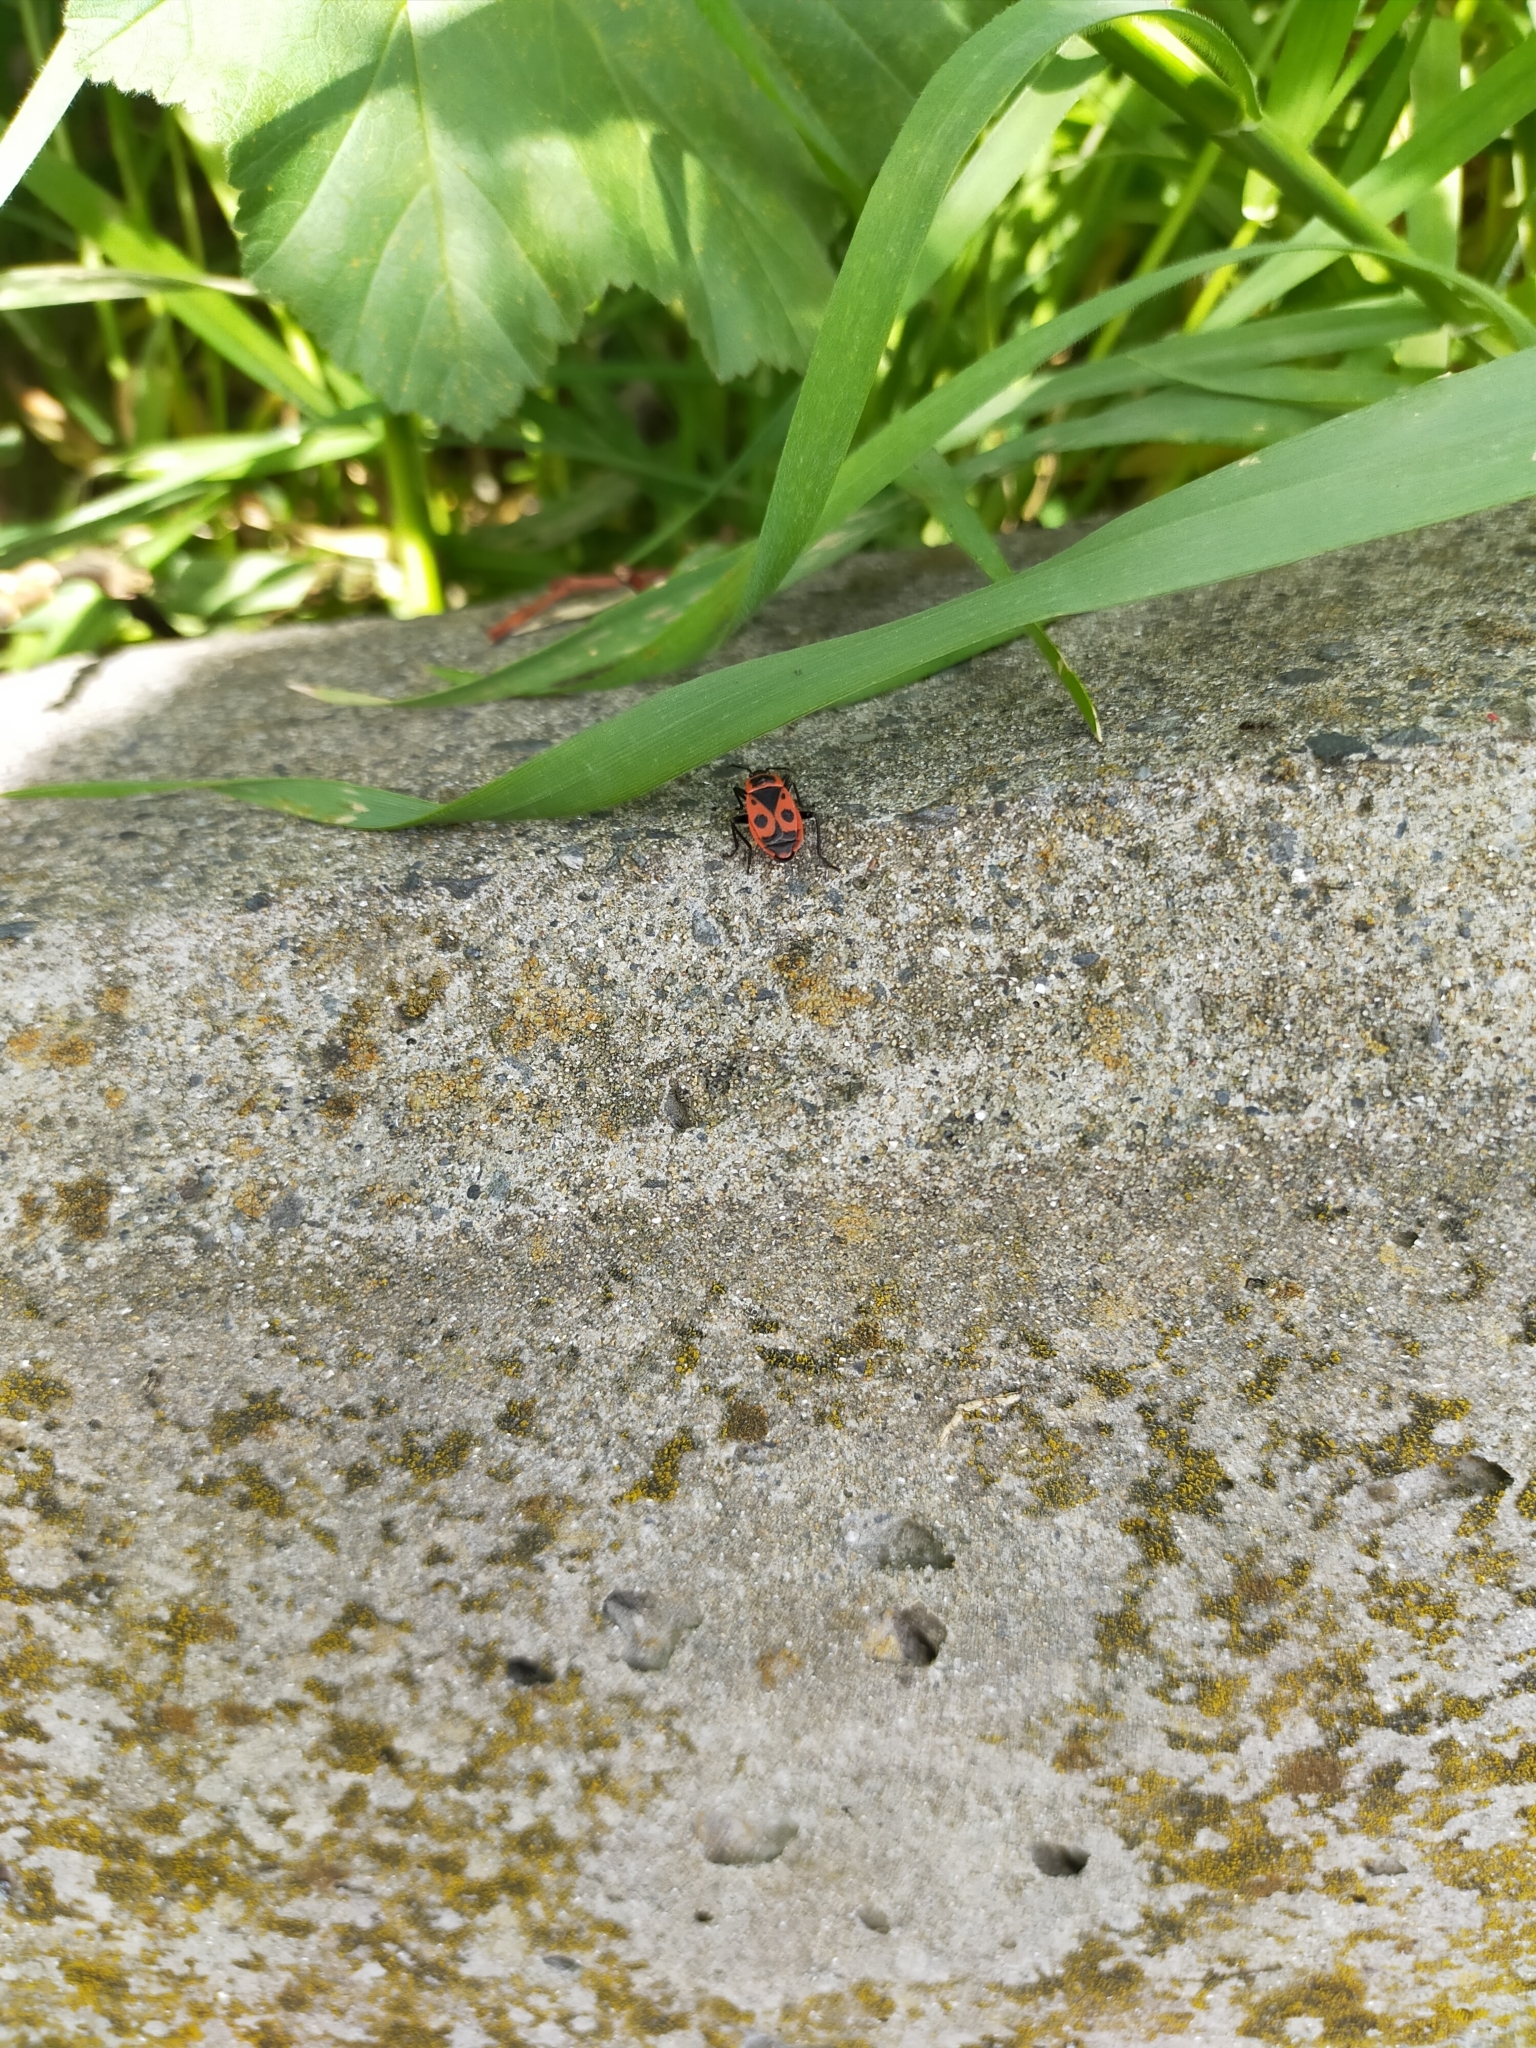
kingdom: Animalia
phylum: Arthropoda
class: Insecta
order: Hemiptera
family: Pyrrhocoridae
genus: Pyrrhocoris
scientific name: Pyrrhocoris apterus
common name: Firebug
